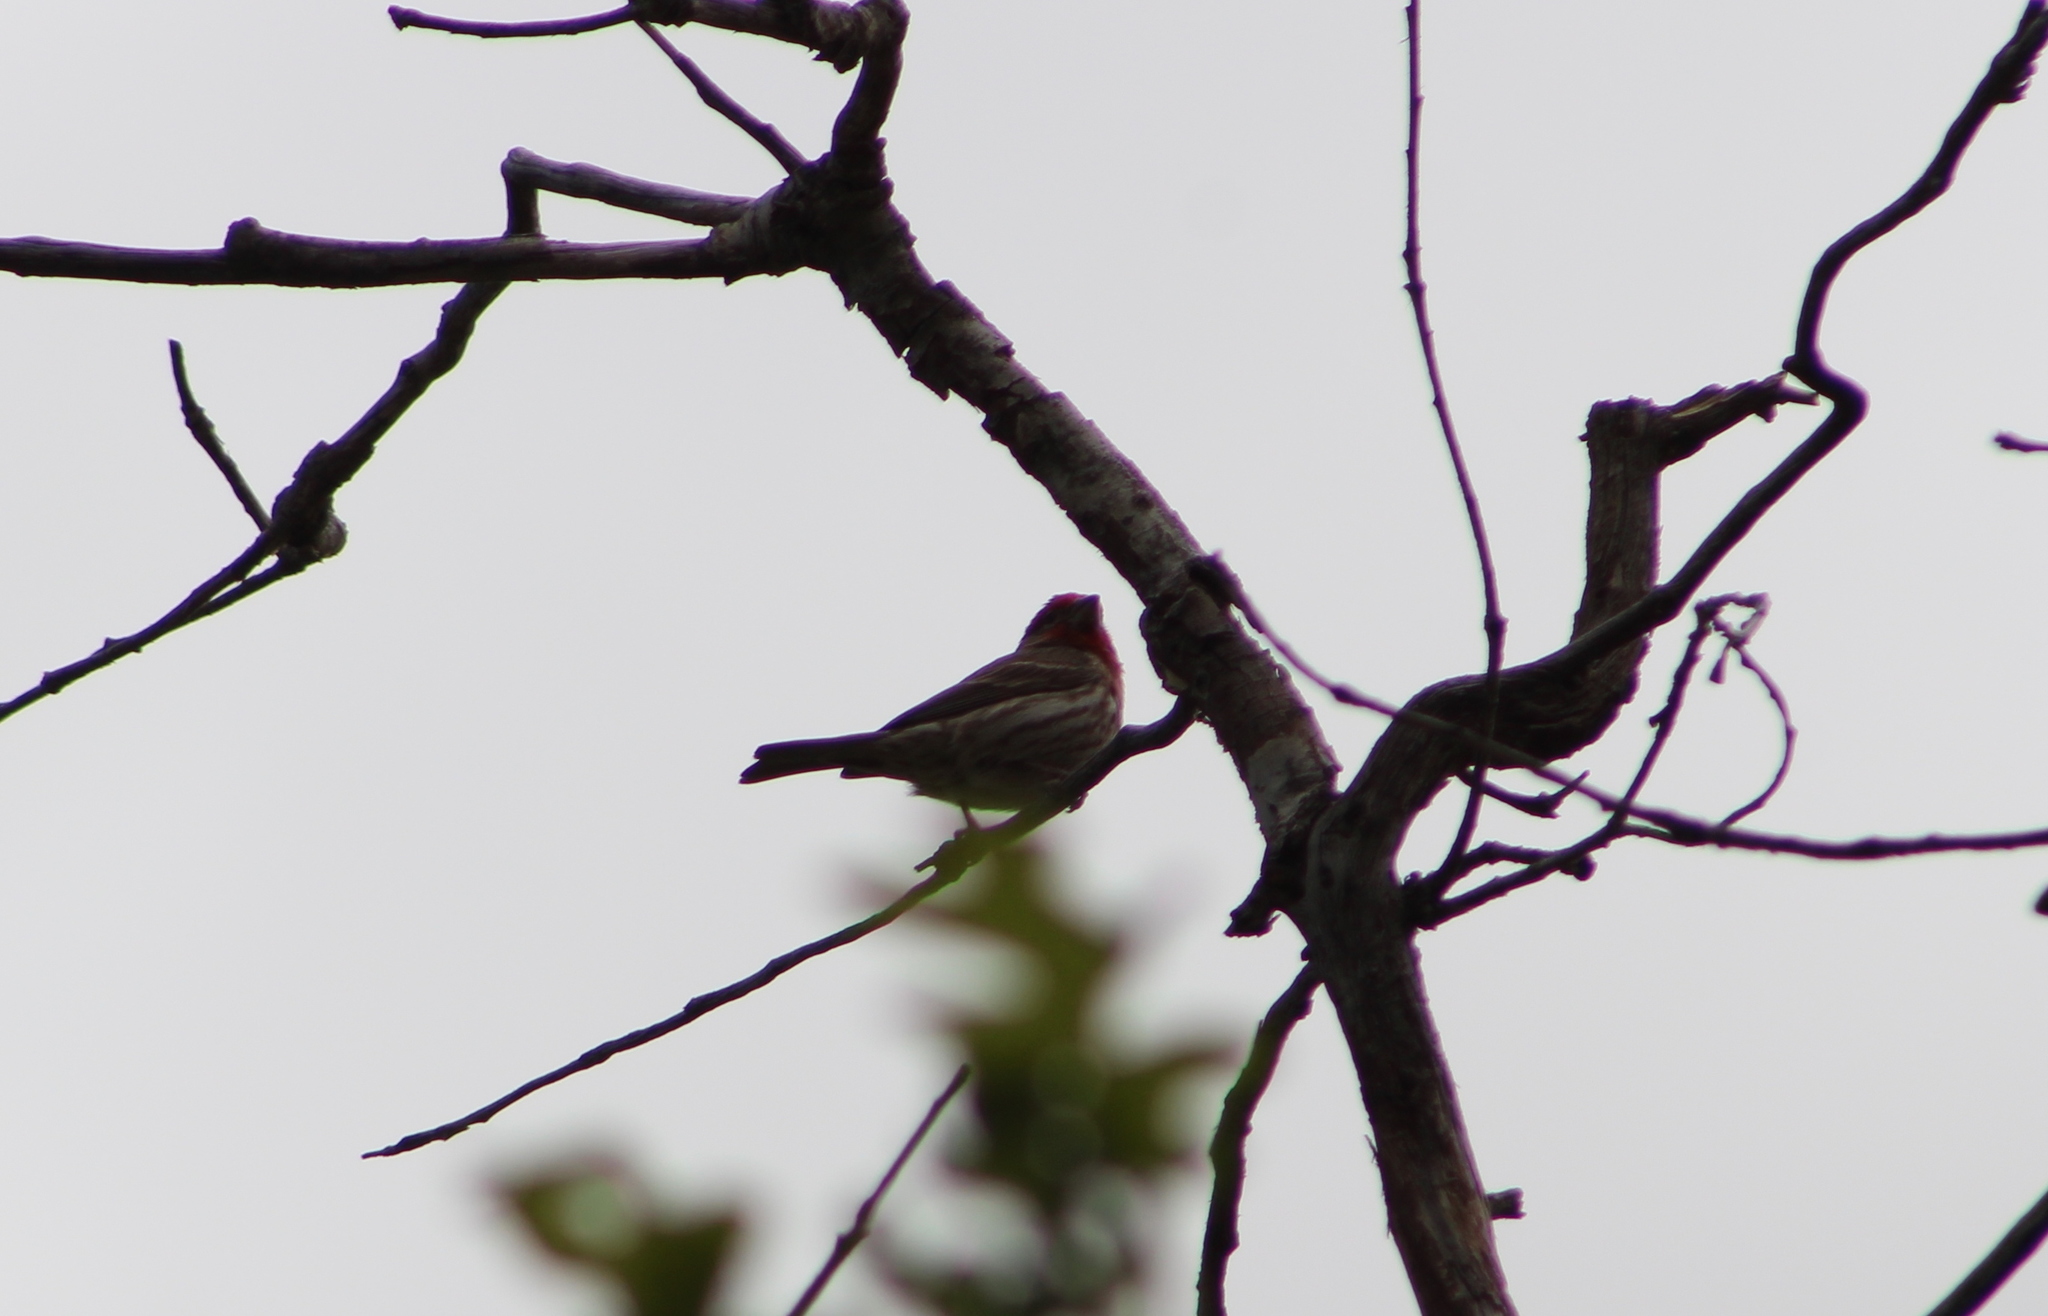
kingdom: Animalia
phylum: Chordata
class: Aves
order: Passeriformes
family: Fringillidae
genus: Haemorhous
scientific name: Haemorhous mexicanus
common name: House finch
